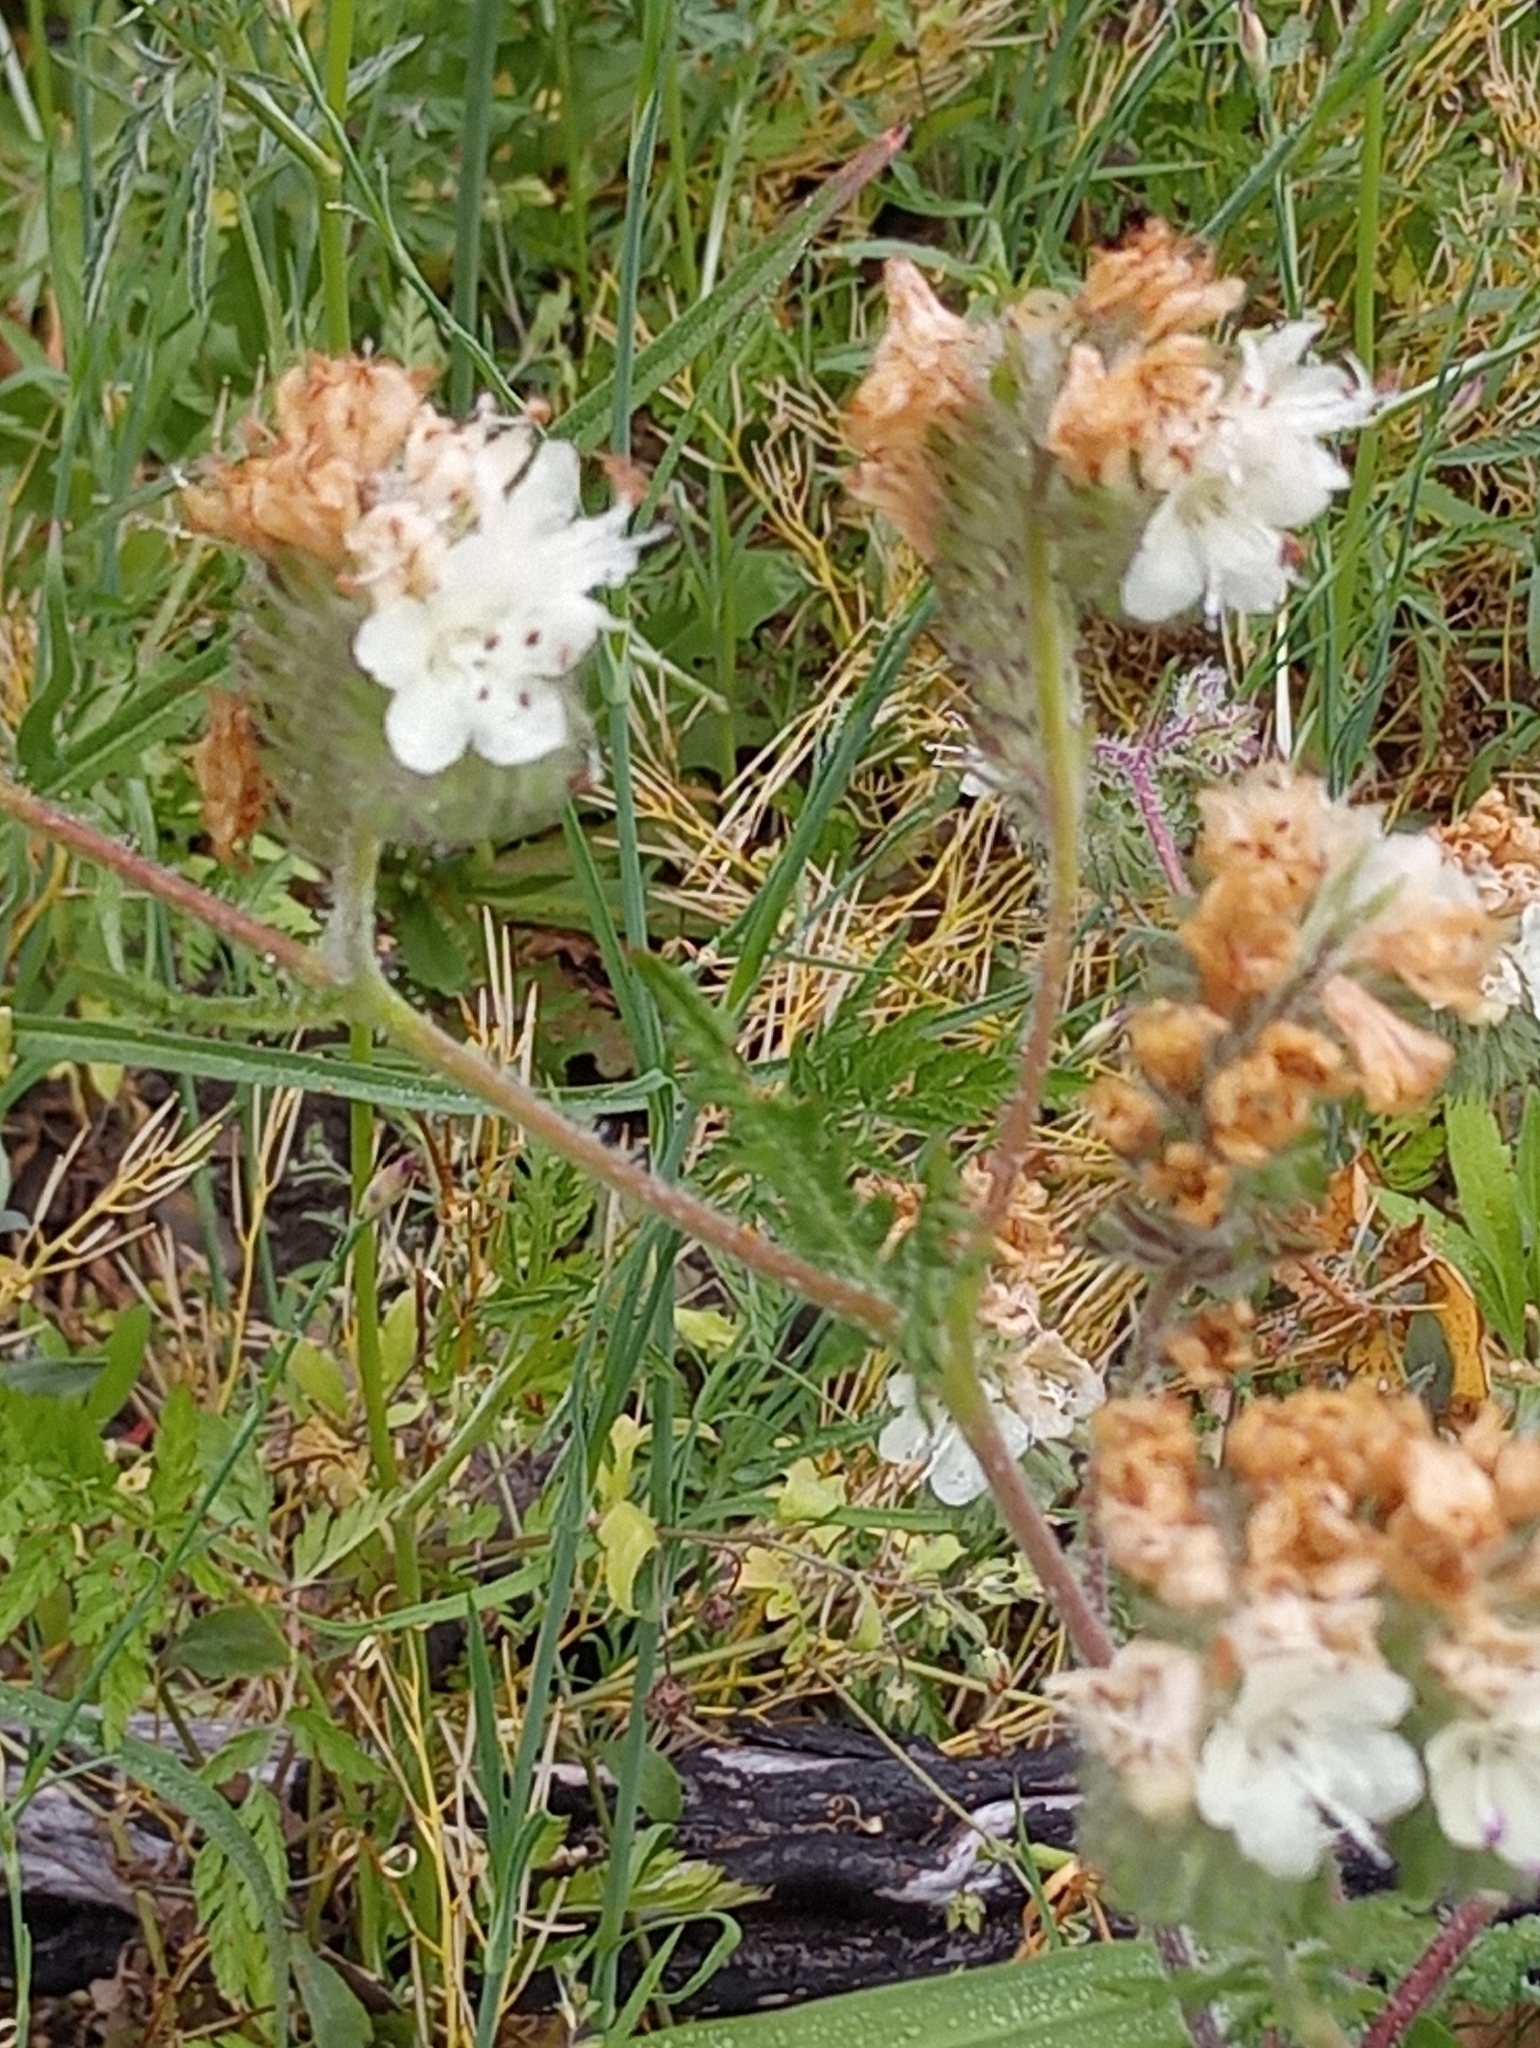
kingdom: Plantae
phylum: Tracheophyta
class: Magnoliopsida
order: Boraginales
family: Hydrophyllaceae
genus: Phacelia
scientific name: Phacelia distans
